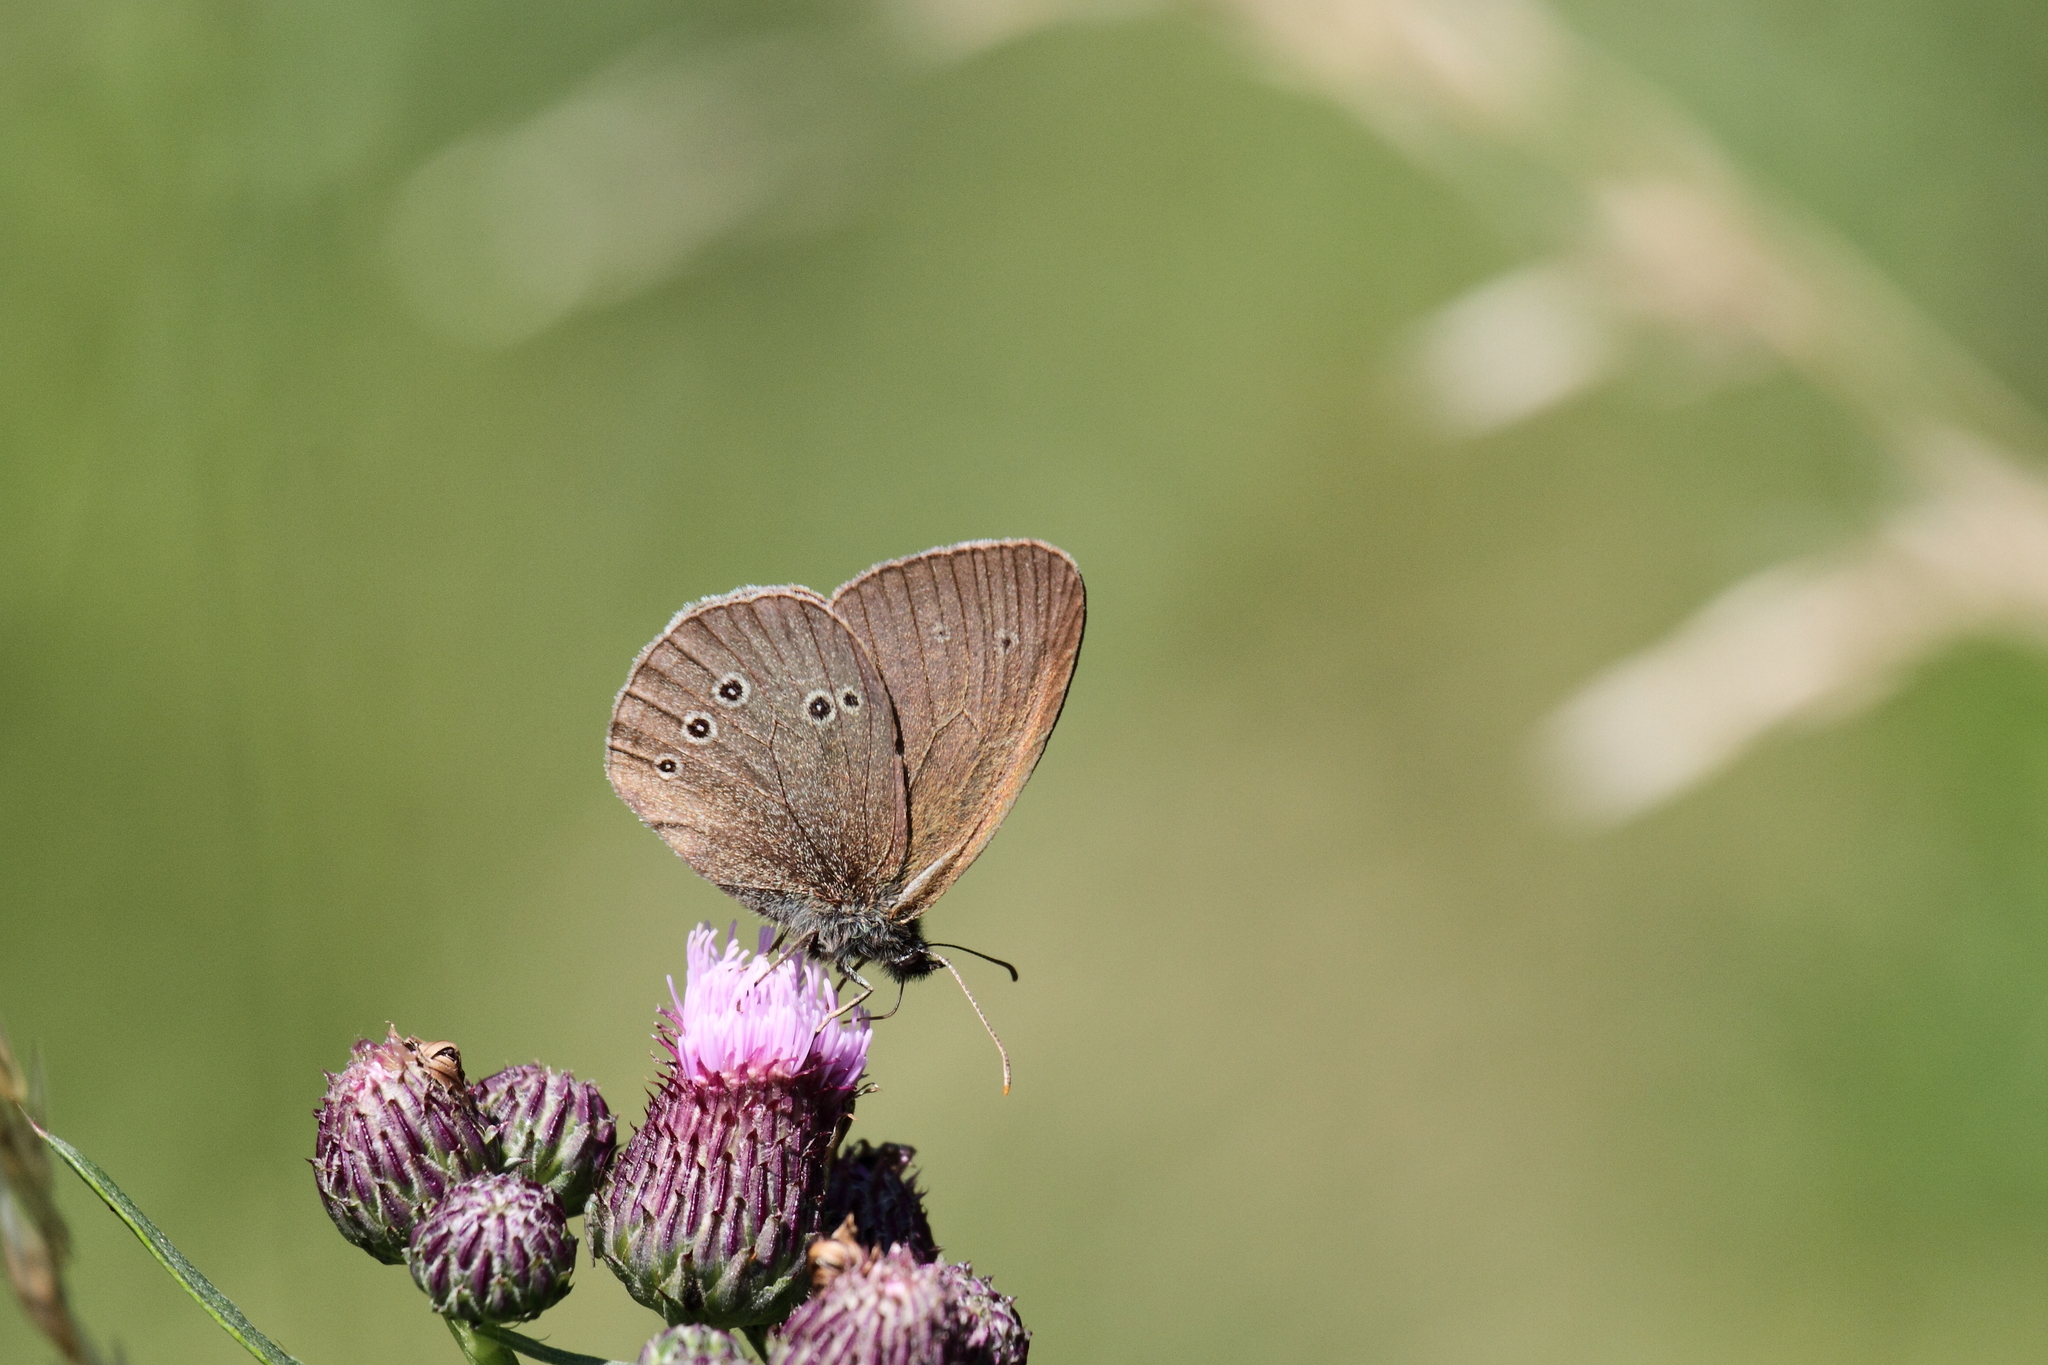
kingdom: Animalia
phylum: Arthropoda
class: Insecta
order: Lepidoptera
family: Nymphalidae
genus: Aphantopus
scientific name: Aphantopus hyperantus
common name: Ringlet
